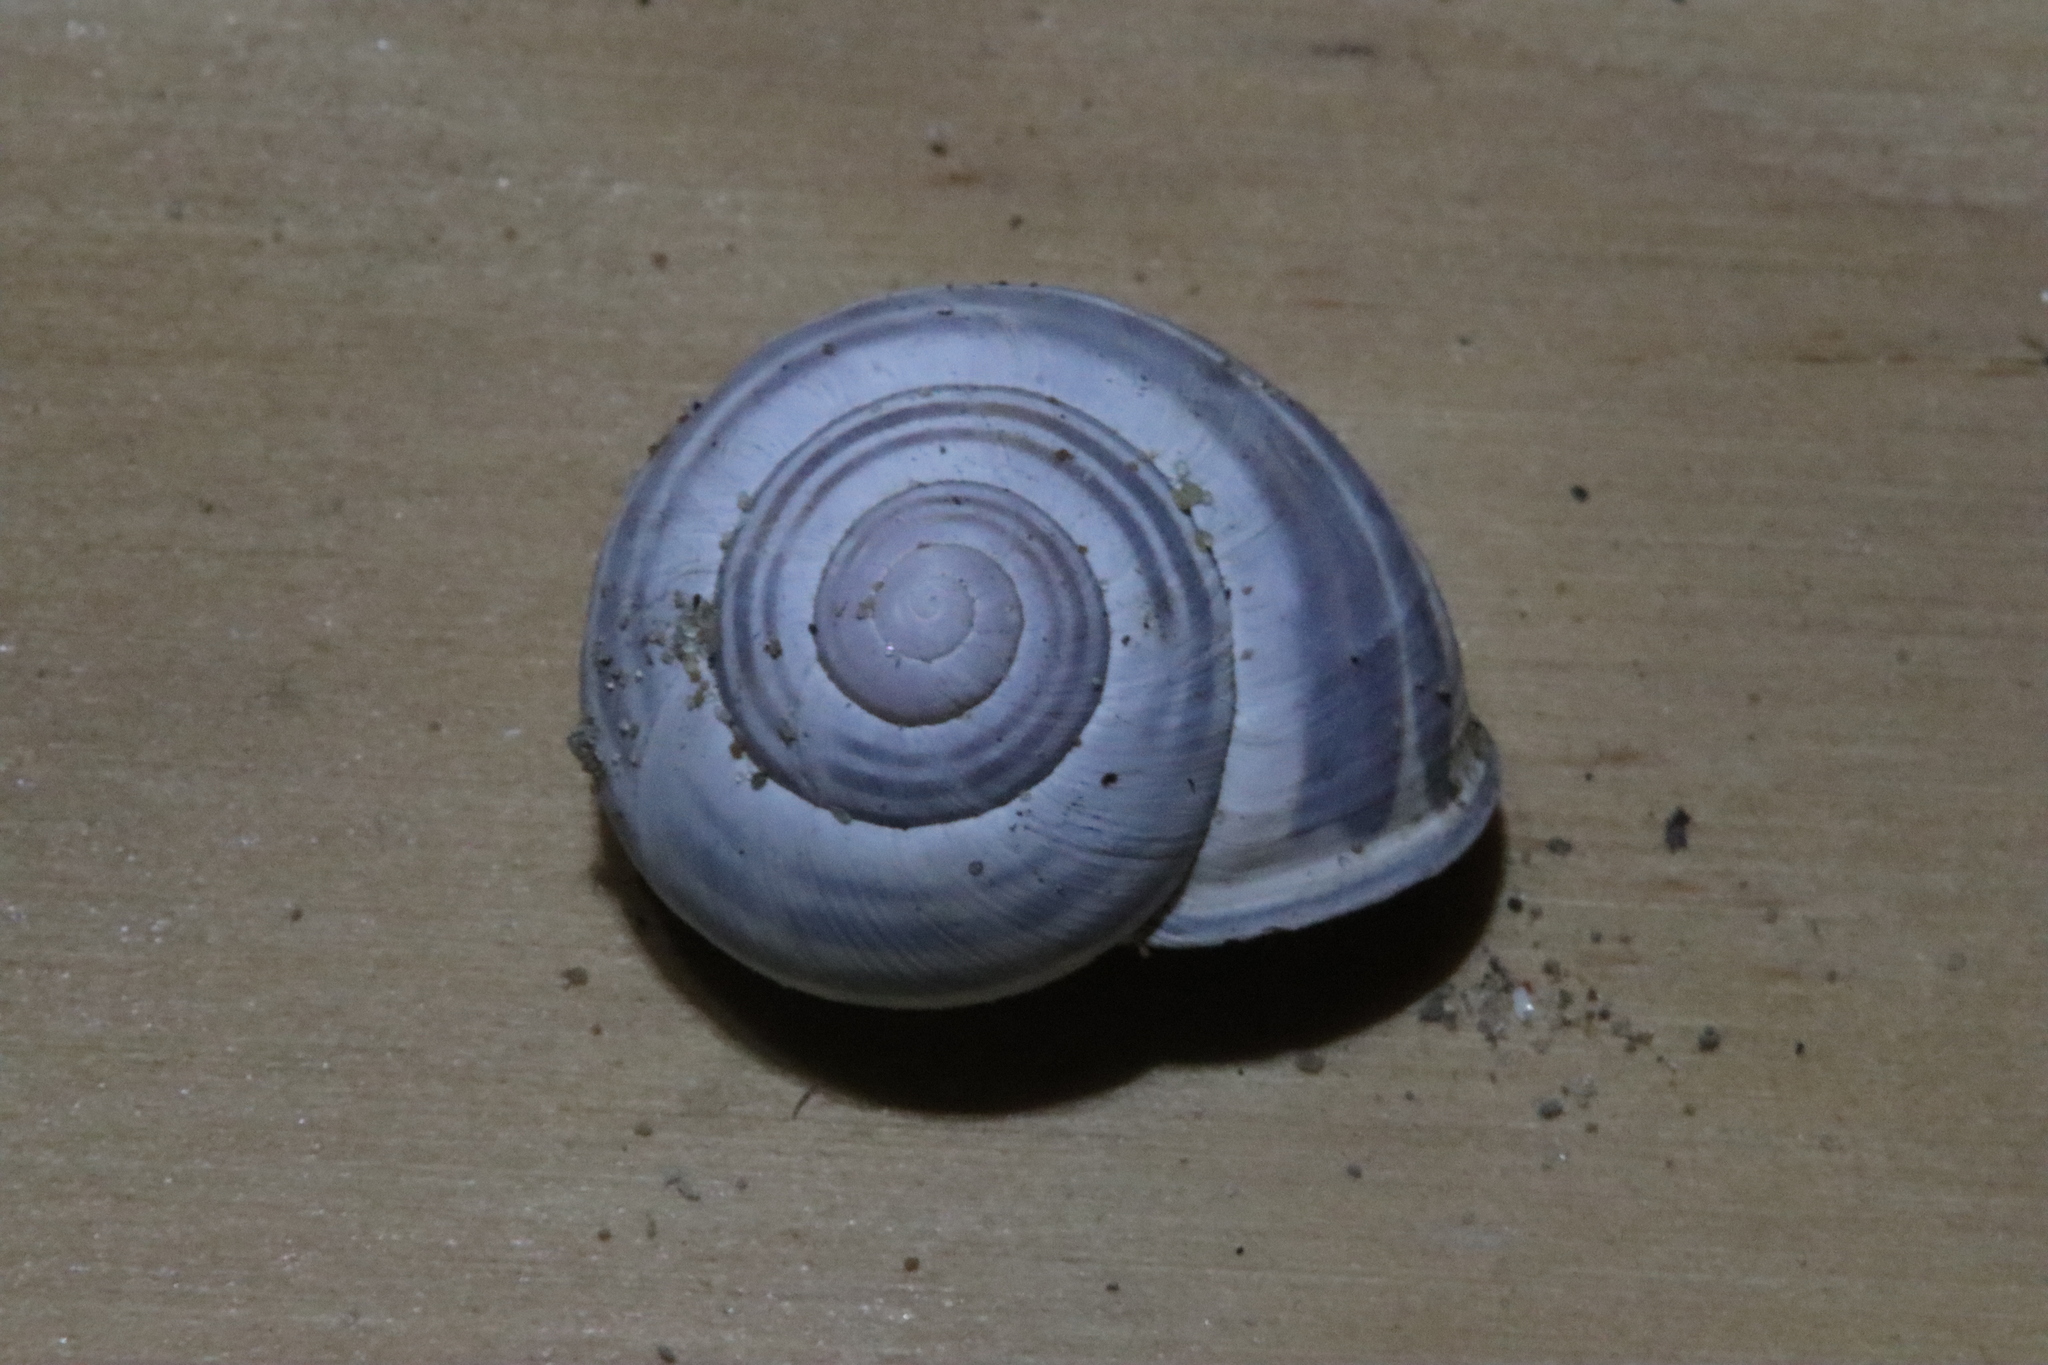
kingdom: Animalia
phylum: Mollusca
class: Gastropoda
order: Stylommatophora
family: Helicidae
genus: Cepaea
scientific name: Cepaea nemoralis
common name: Grovesnail
